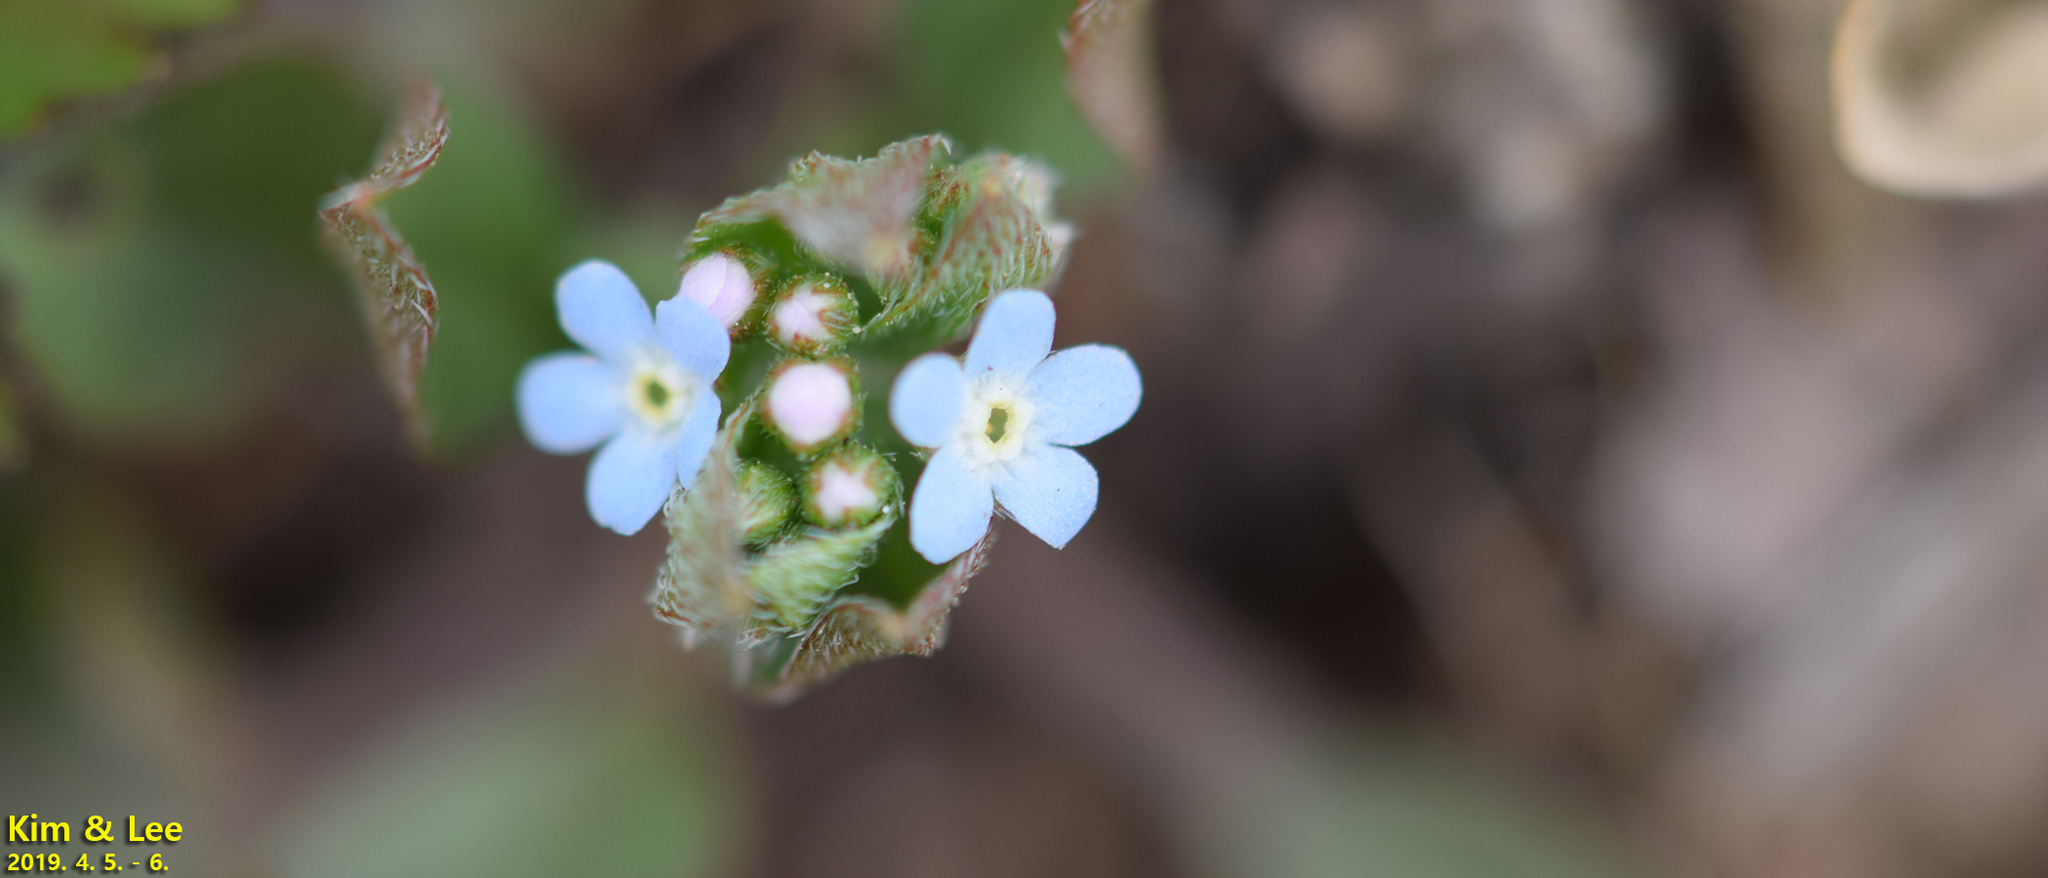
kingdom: Plantae
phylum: Tracheophyta
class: Magnoliopsida
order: Boraginales
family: Boraginaceae
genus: Trigonotis
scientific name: Trigonotis peduncularis
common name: Cucumber herb
